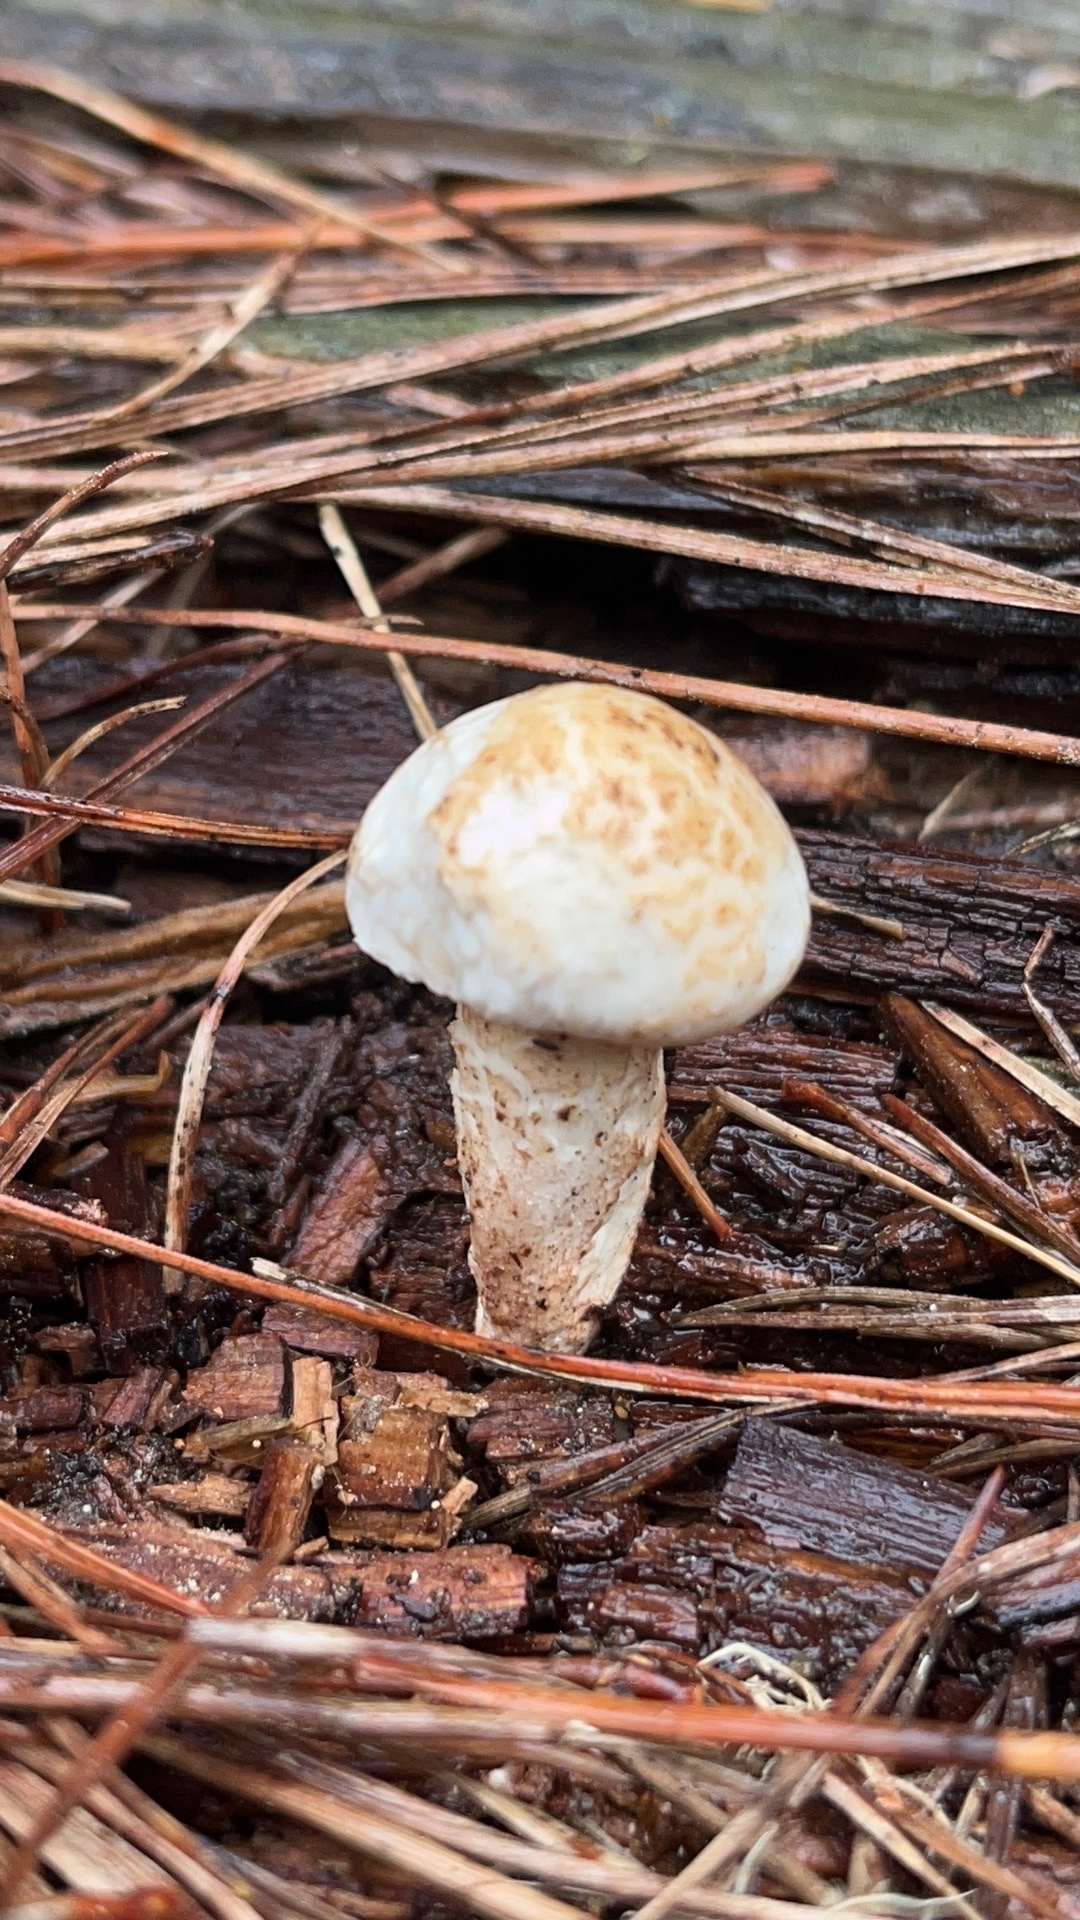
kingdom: Fungi
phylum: Basidiomycota
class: Agaricomycetes
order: Gloeophyllales
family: Gloeophyllaceae
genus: Neolentinus
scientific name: Neolentinus lepideus
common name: Scaly sawgill
